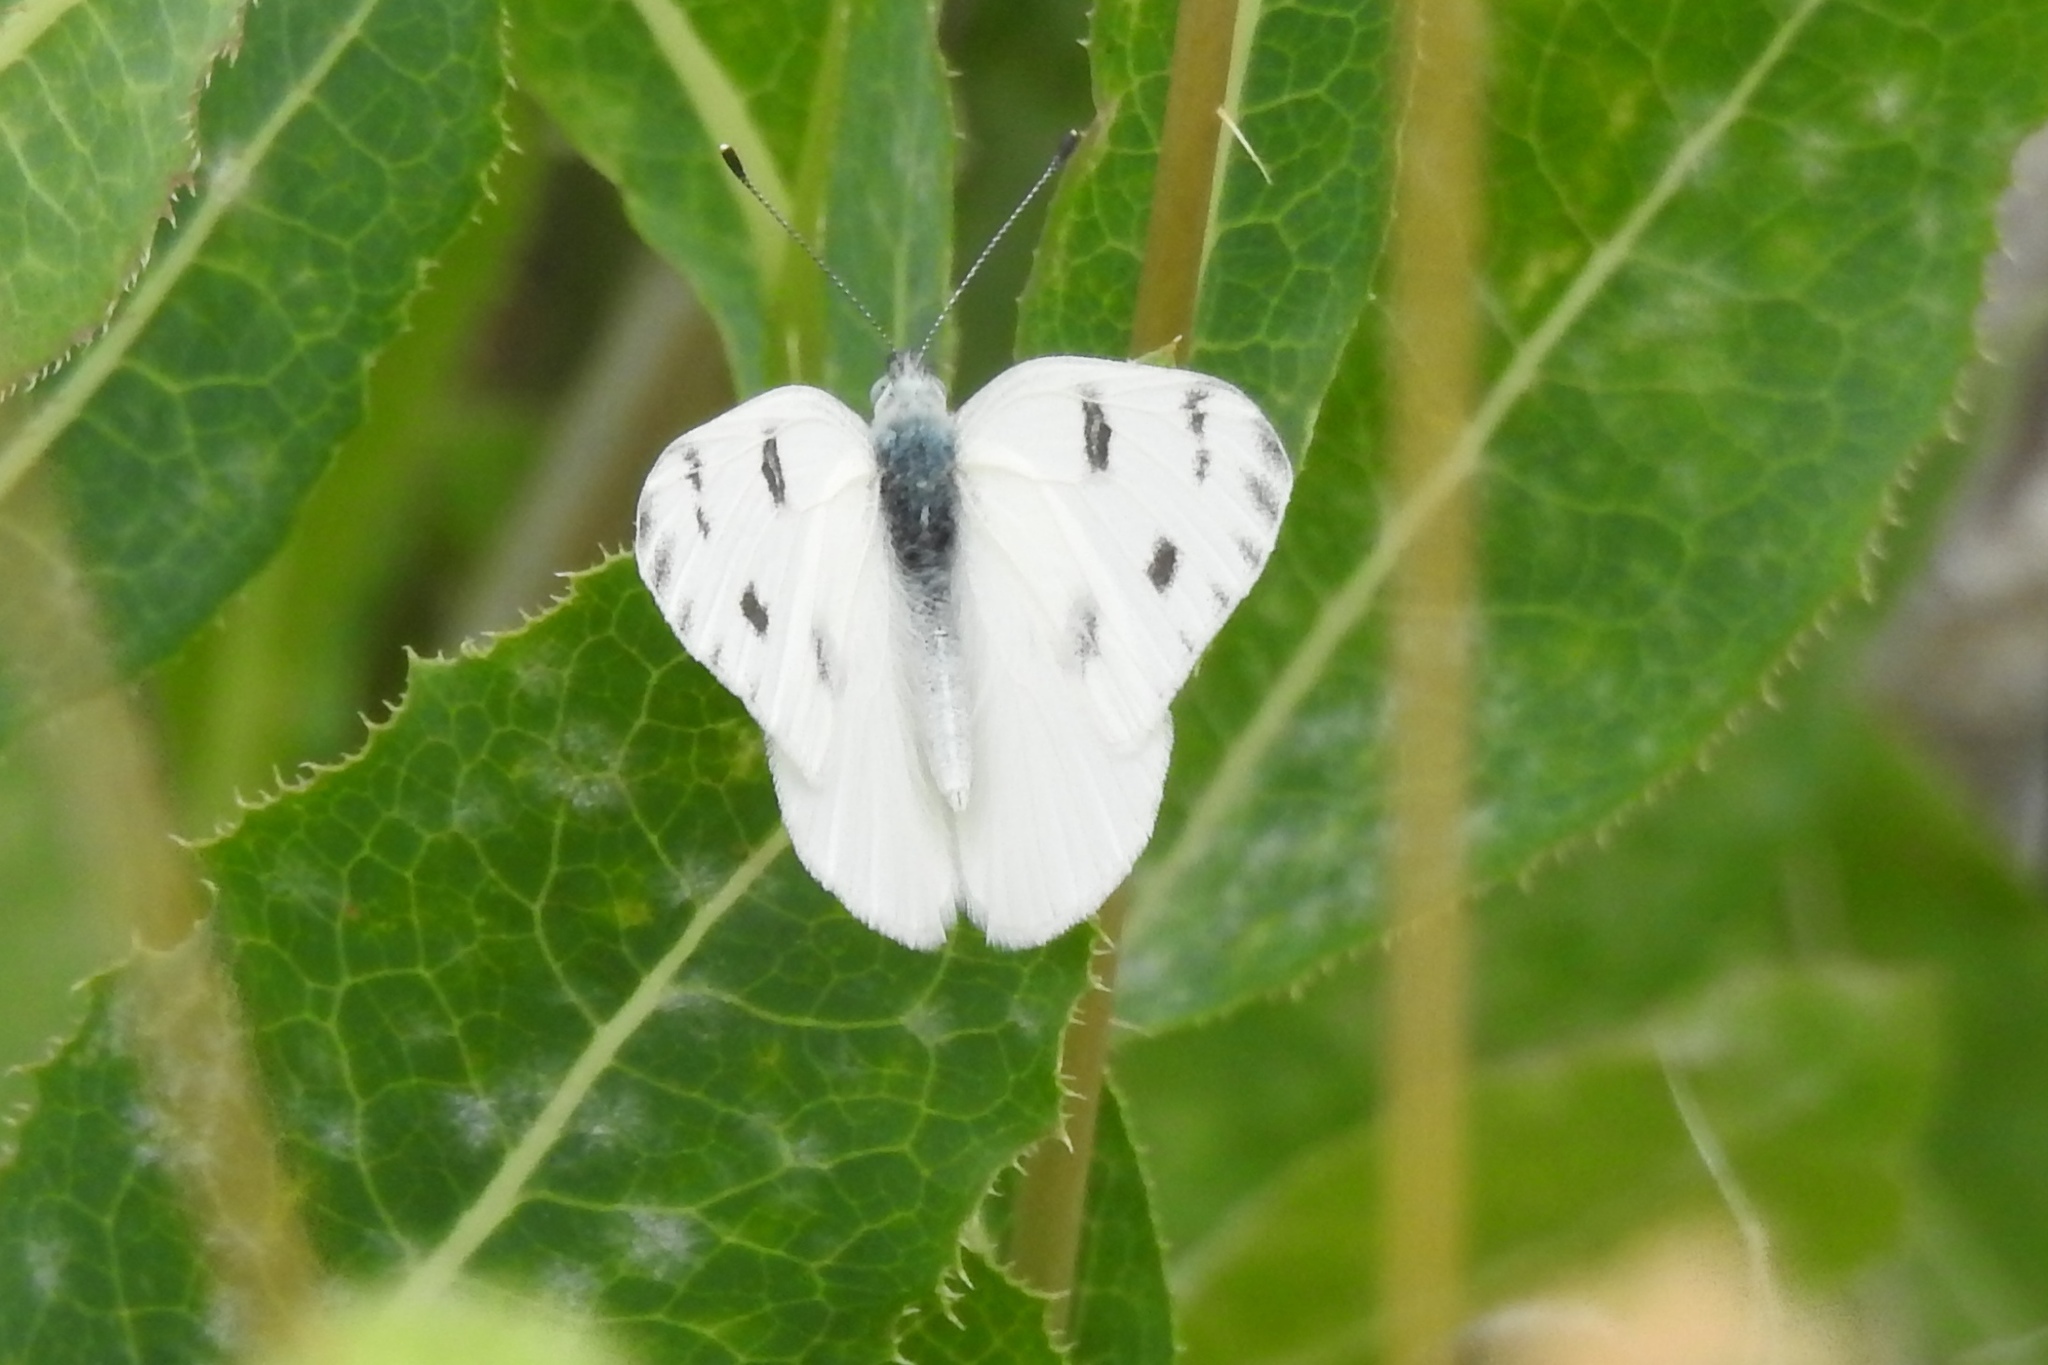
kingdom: Animalia
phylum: Arthropoda
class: Insecta
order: Lepidoptera
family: Pieridae
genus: Pontia
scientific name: Pontia protodice
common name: Checkered white
